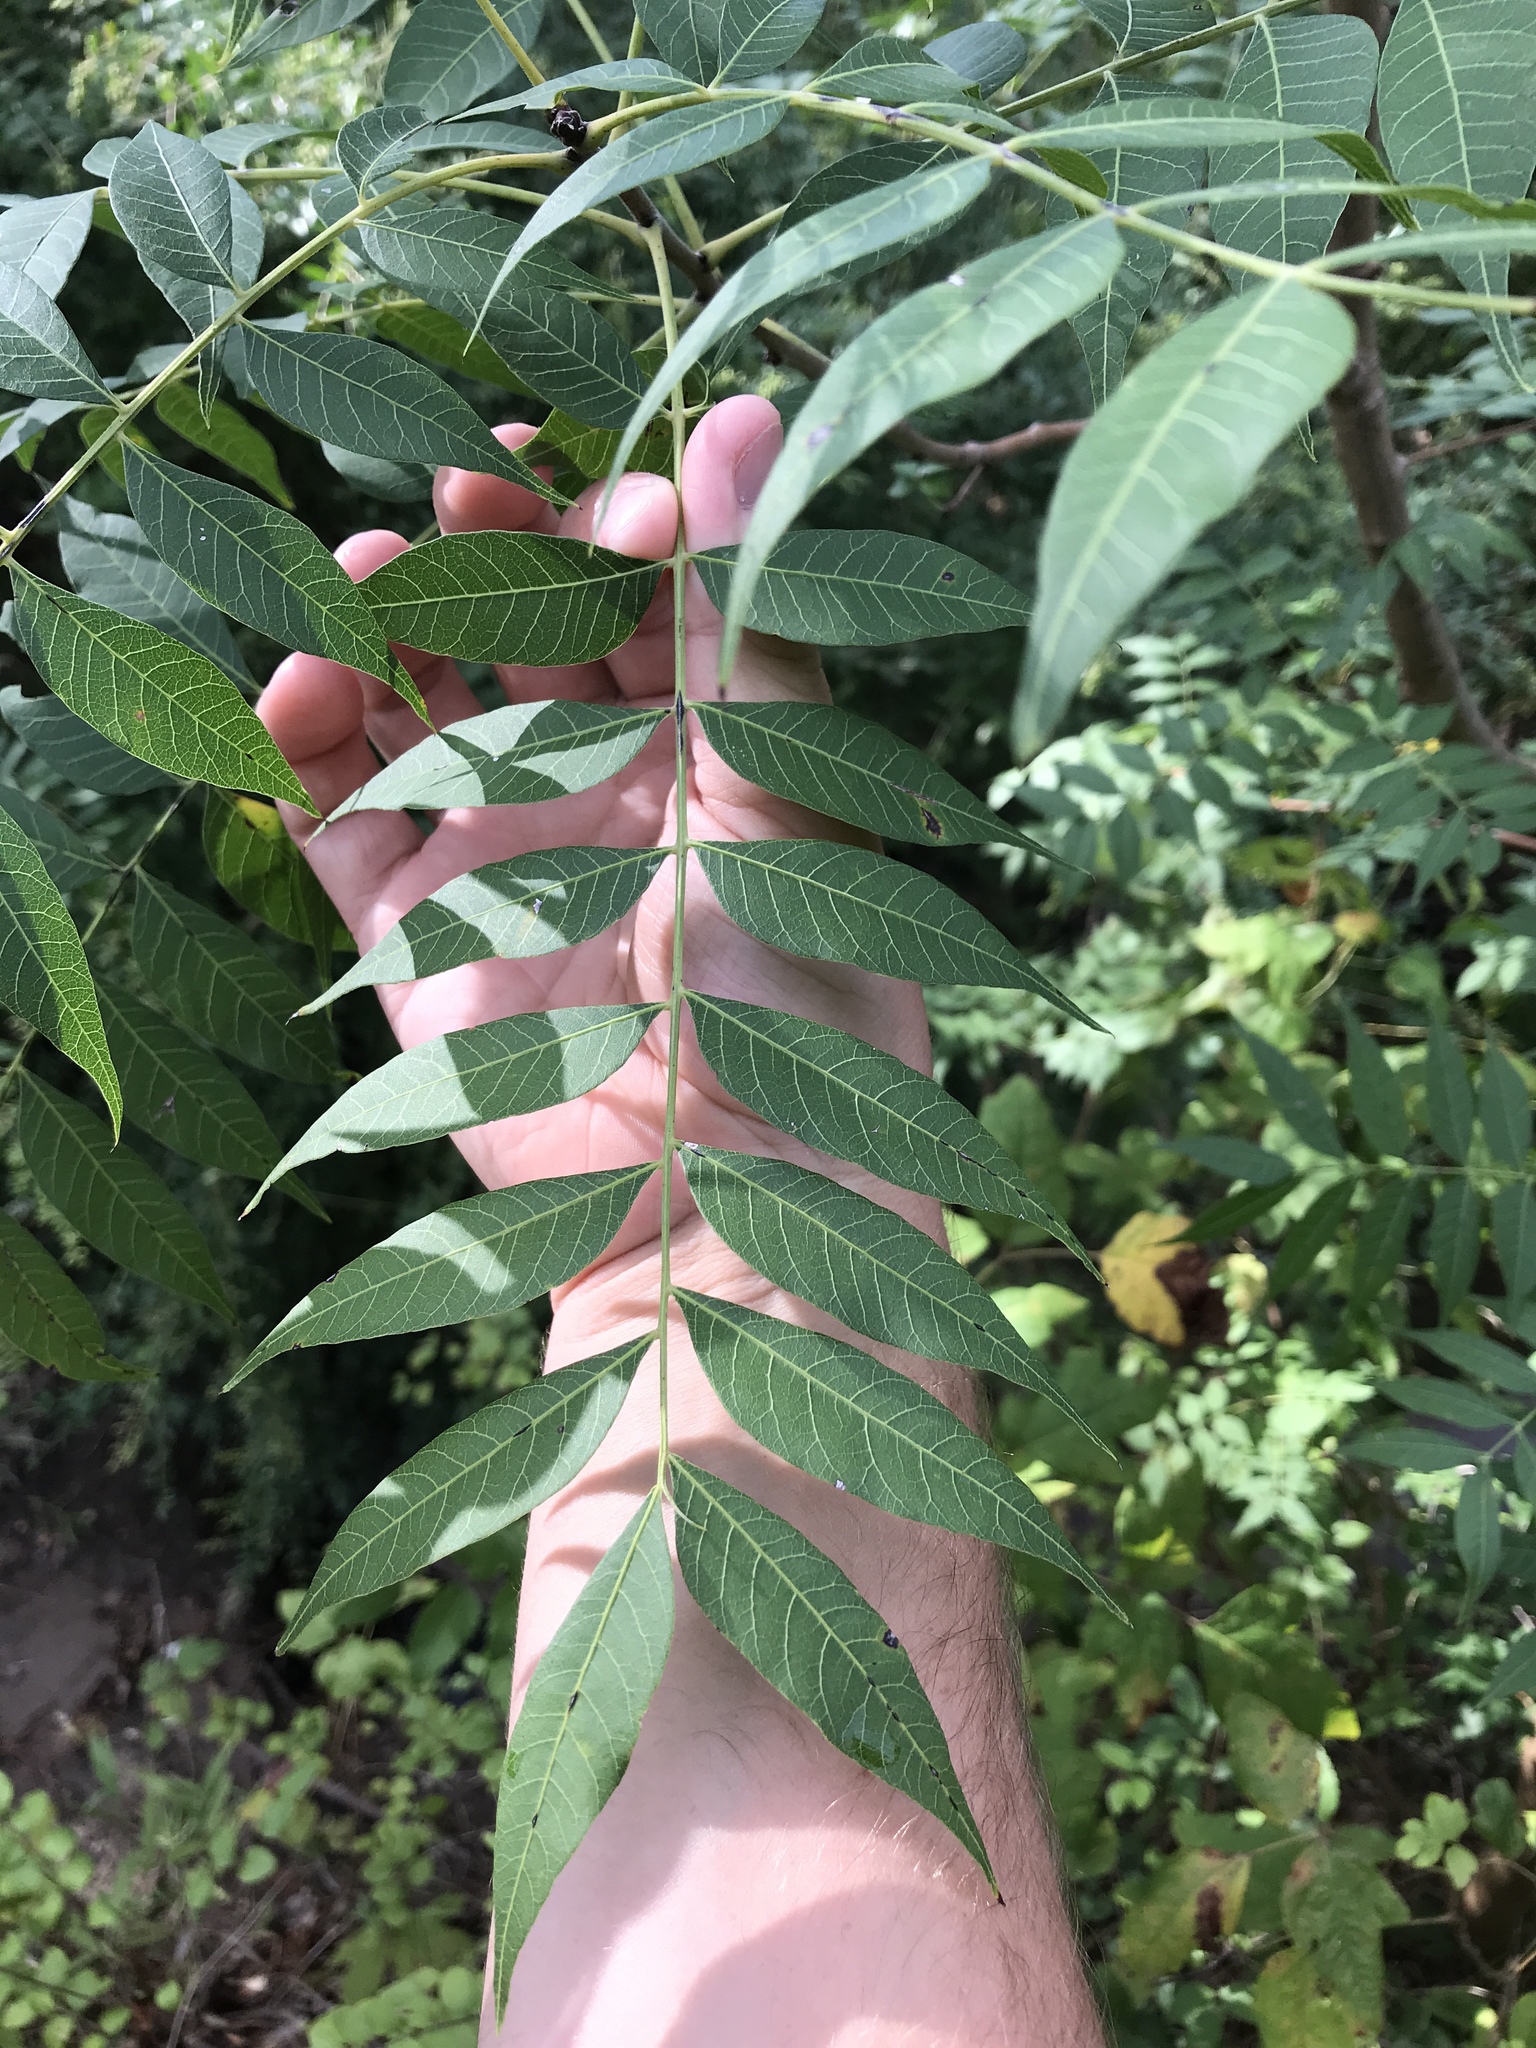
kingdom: Plantae
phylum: Tracheophyta
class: Magnoliopsida
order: Sapindales
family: Anacardiaceae
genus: Pistacia
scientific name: Pistacia chinensis
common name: Chinese pistache
